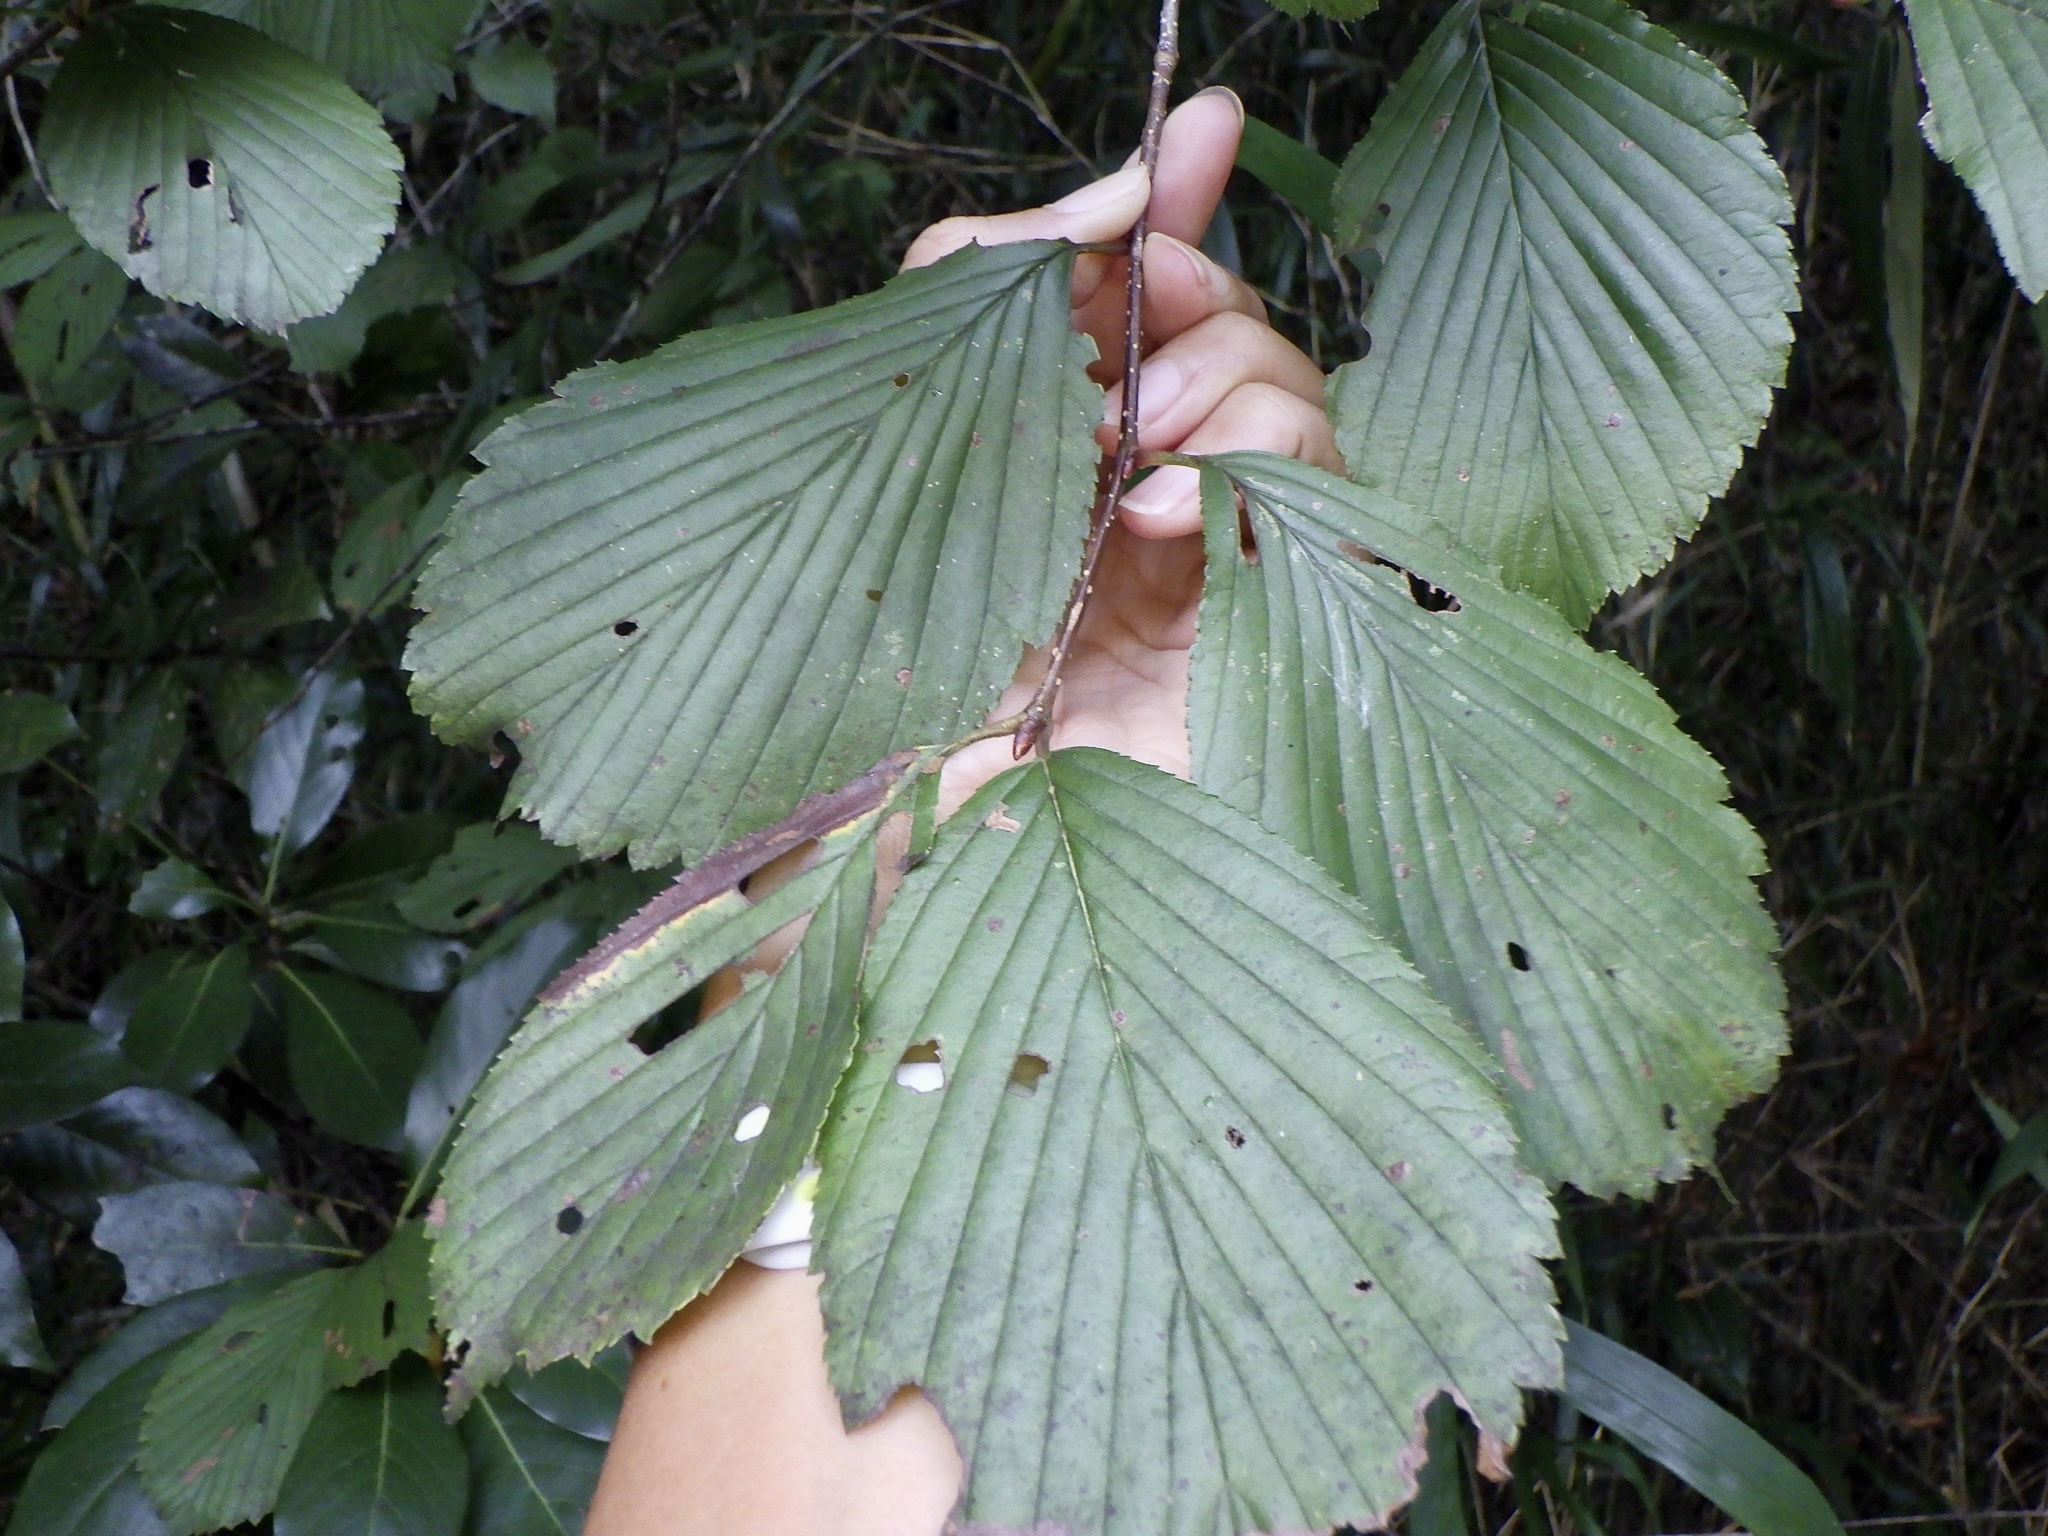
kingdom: Plantae
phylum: Tracheophyta
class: Magnoliopsida
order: Rosales
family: Rosaceae
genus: Sorbus
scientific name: Sorbus alnifolia
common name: Mountain-ash
